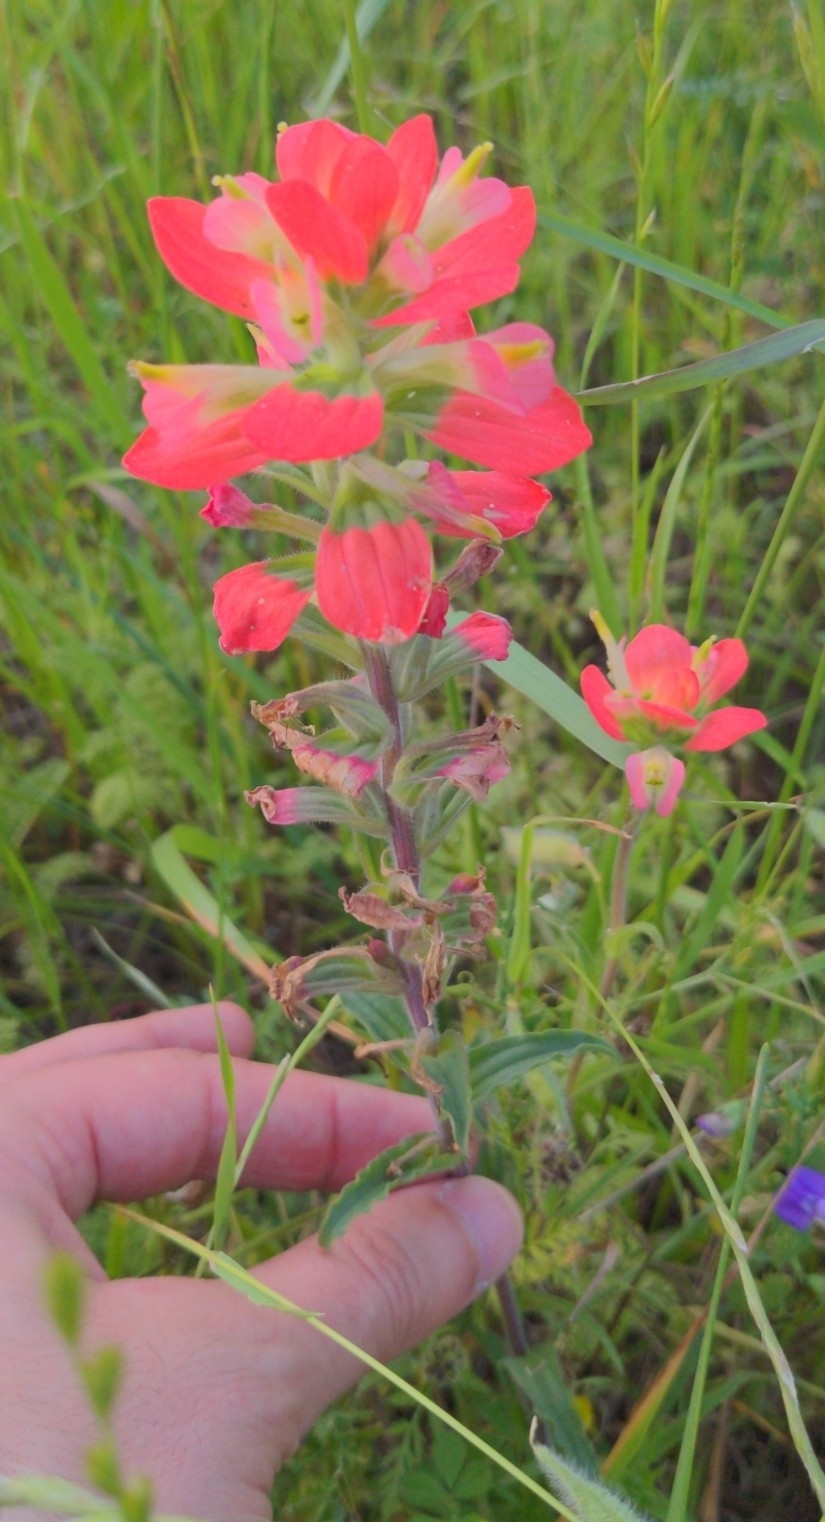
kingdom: Plantae
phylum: Tracheophyta
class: Magnoliopsida
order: Lamiales
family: Orobanchaceae
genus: Castilleja
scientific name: Castilleja indivisa
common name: Texas paintbrush
